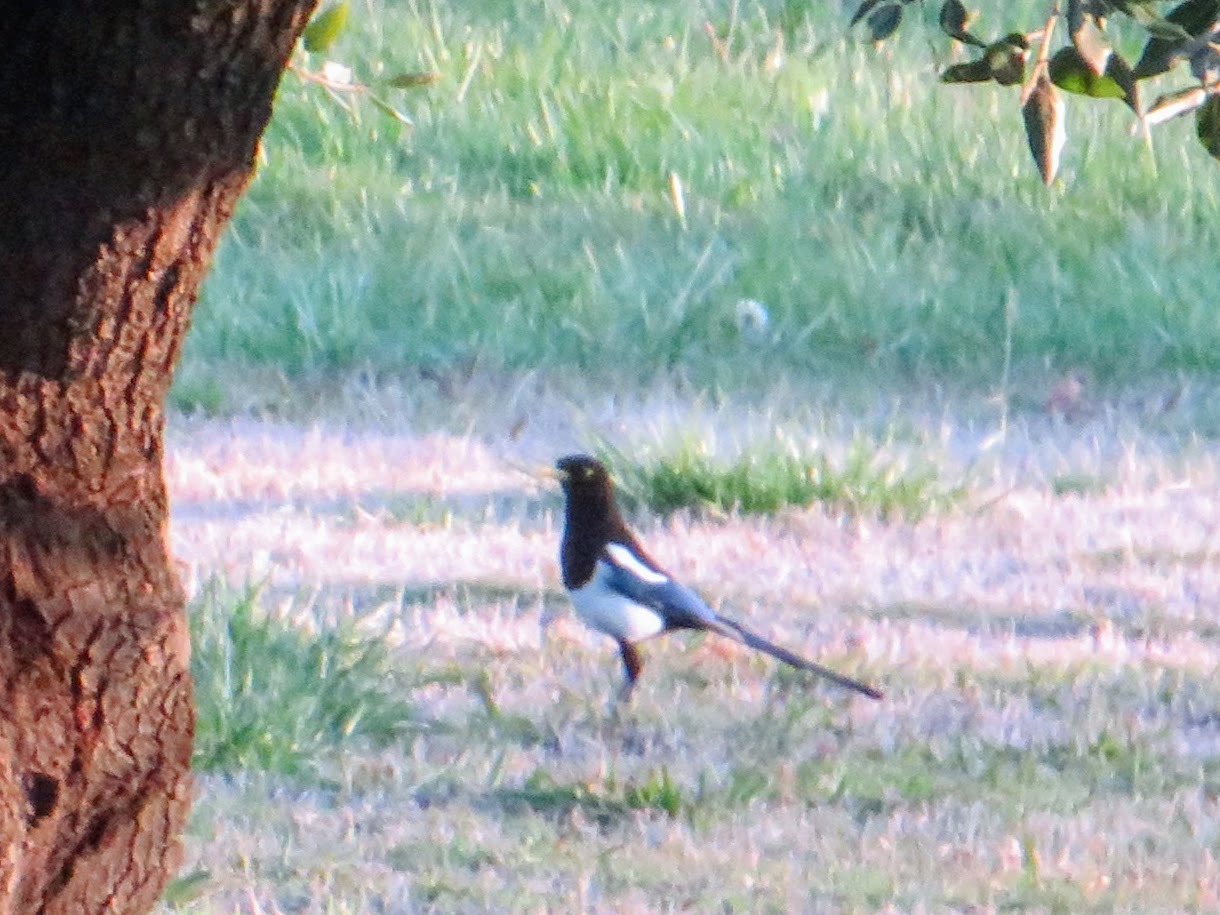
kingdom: Animalia
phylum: Chordata
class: Aves
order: Passeriformes
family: Corvidae
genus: Pica
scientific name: Pica nuttalli
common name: Yellow-billed magpie
